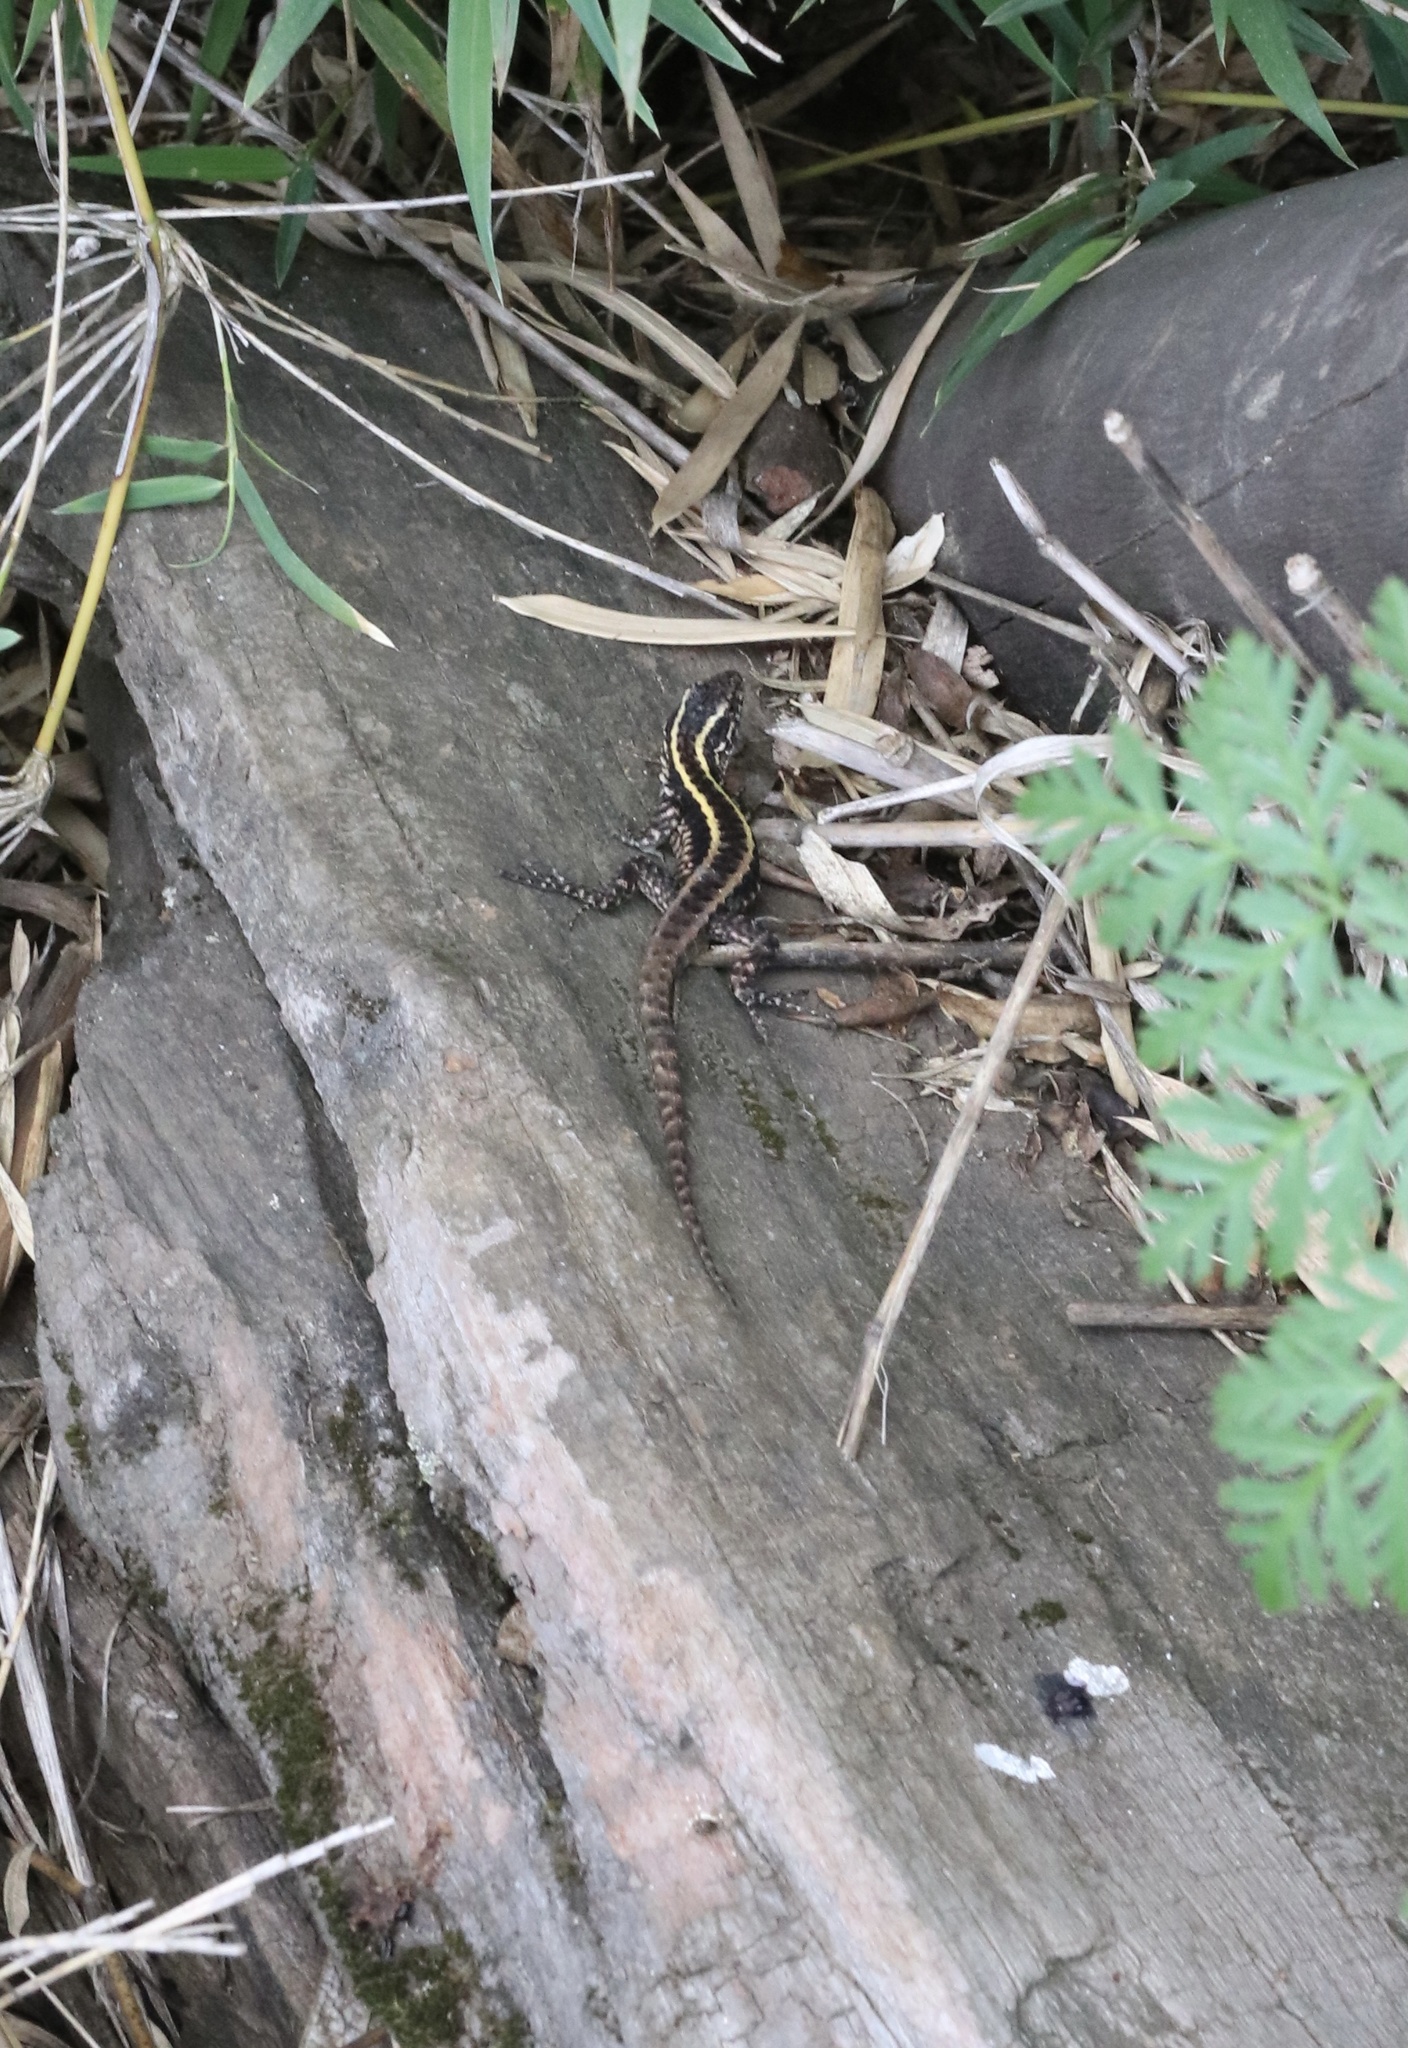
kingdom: Animalia
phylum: Chordata
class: Squamata
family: Liolaemidae
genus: Liolaemus
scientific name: Liolaemus pictus
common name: Painted tree iguana
